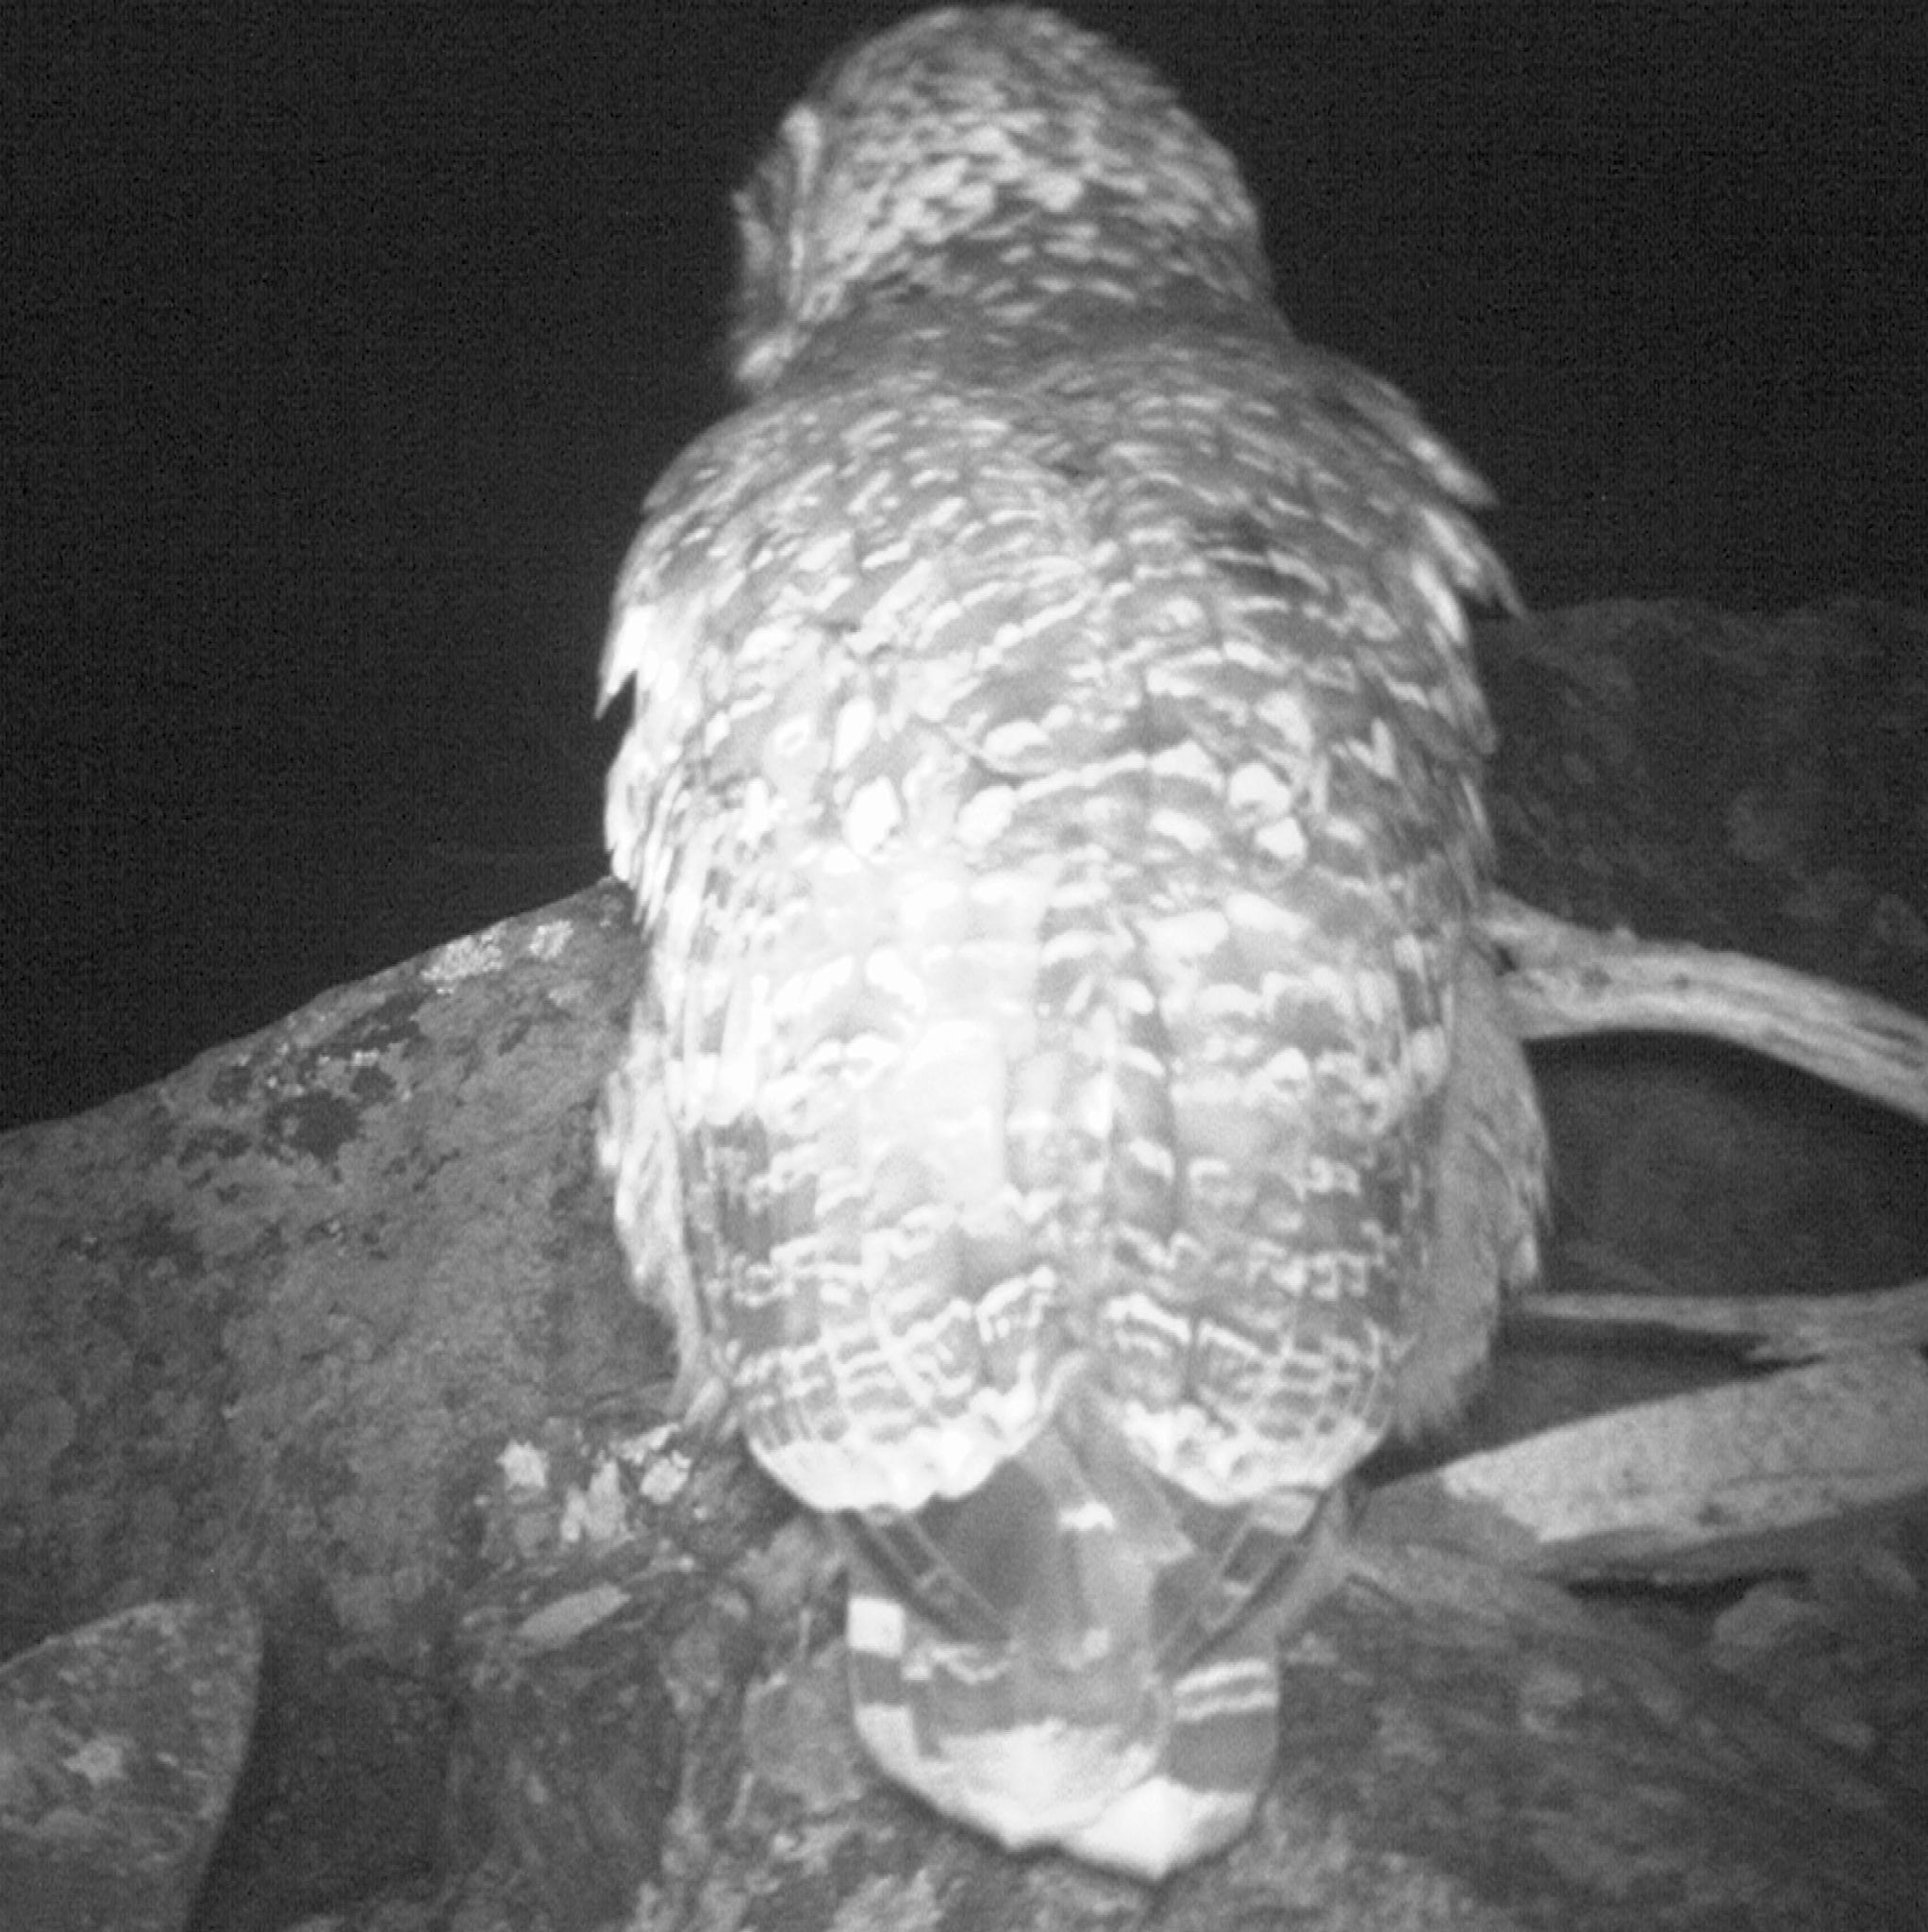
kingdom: Animalia
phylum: Chordata
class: Aves
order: Strigiformes
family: Strigidae
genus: Bubo
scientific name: Bubo africanus
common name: Spotted eagle-owl
